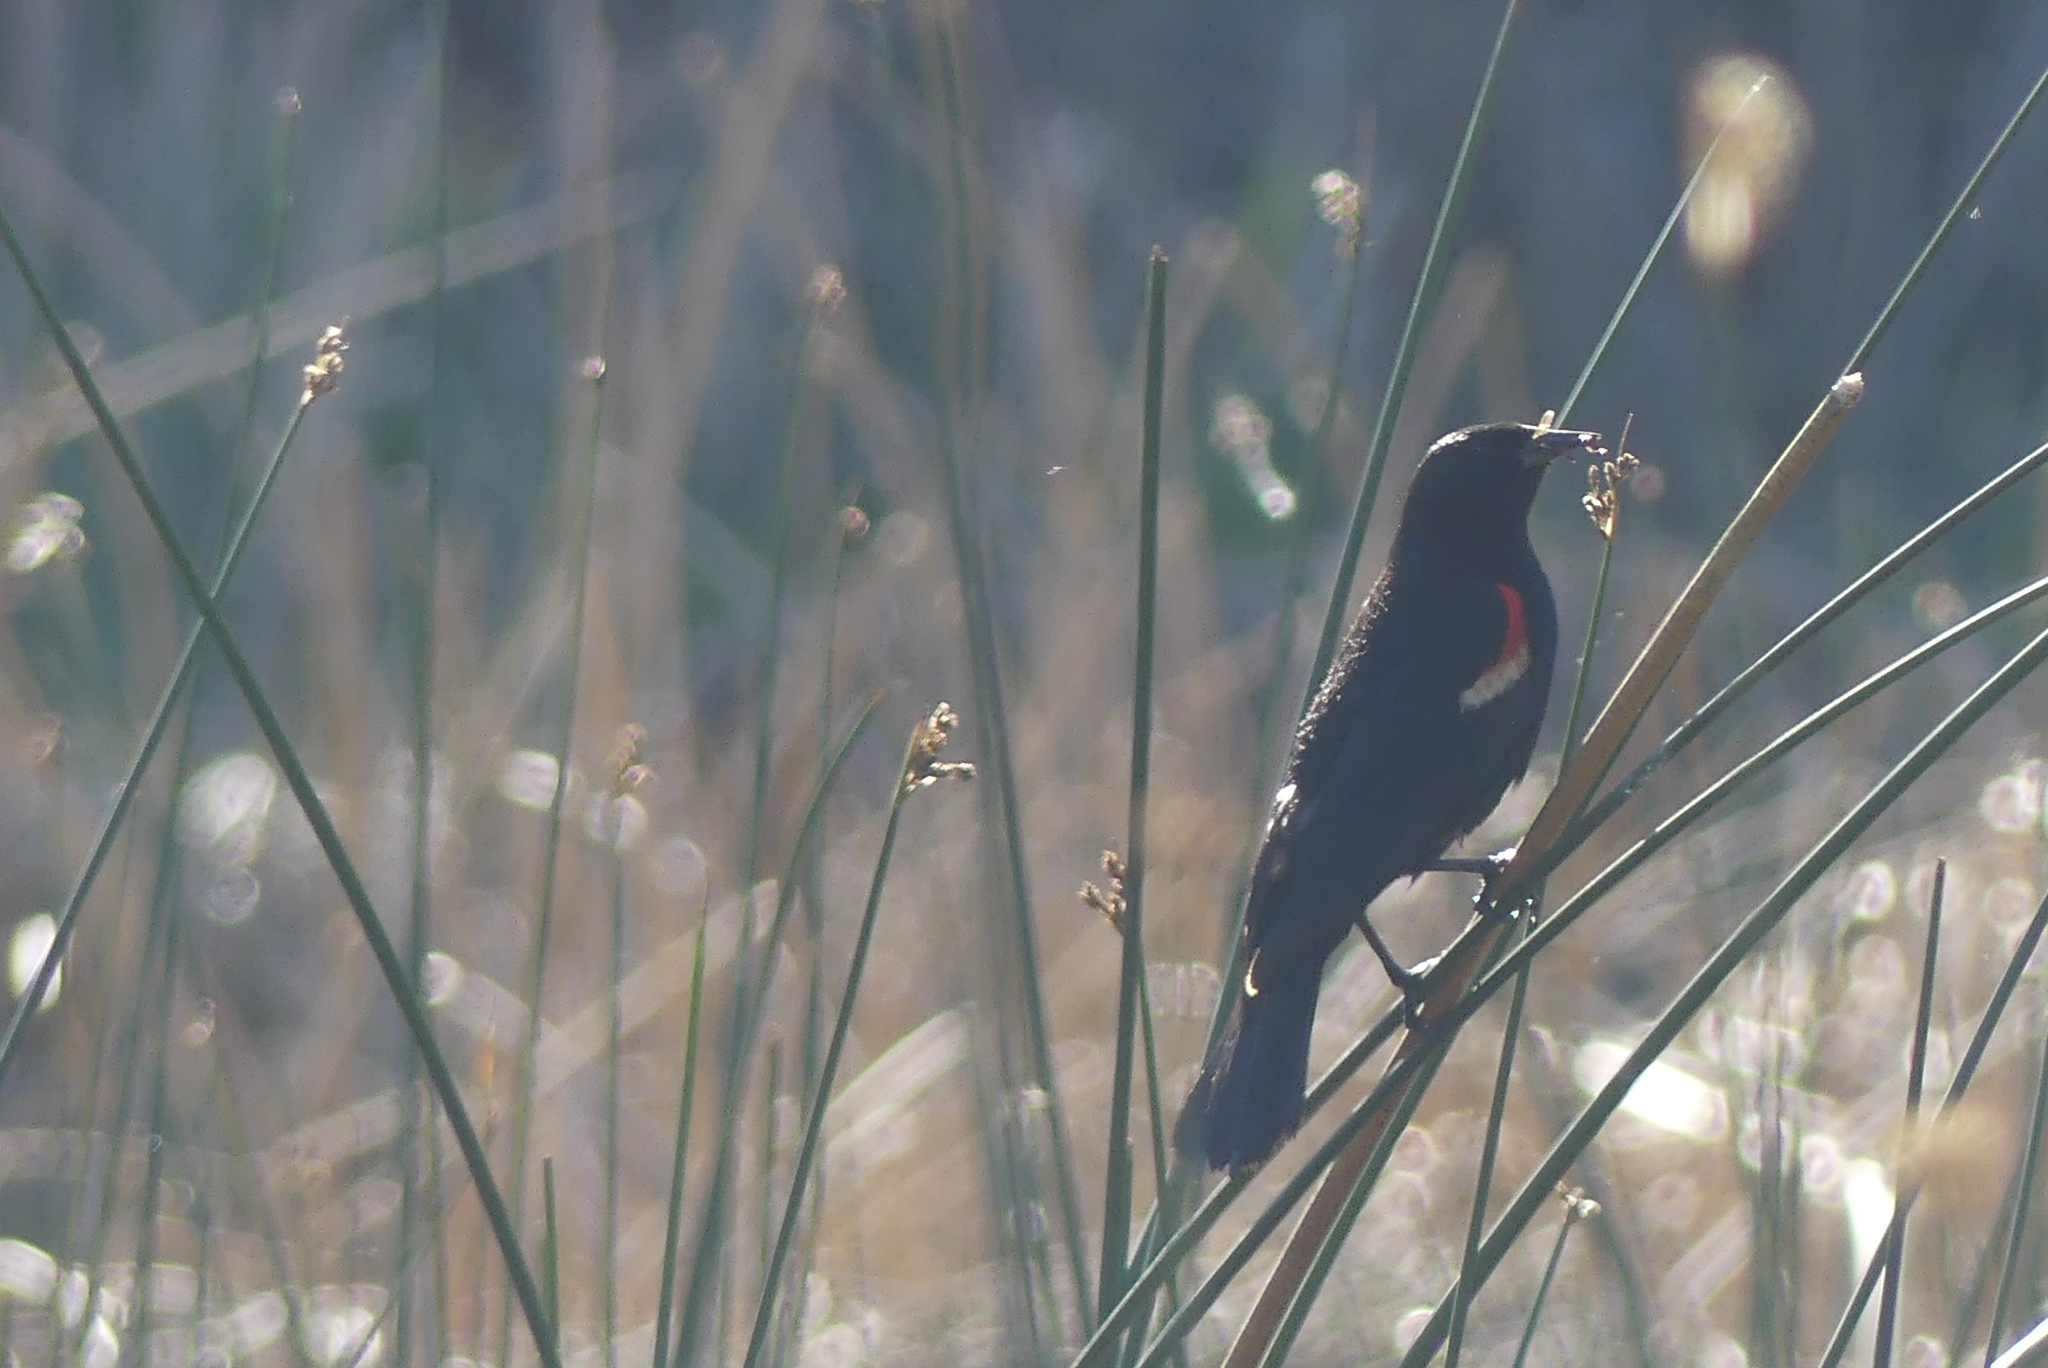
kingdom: Animalia
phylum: Chordata
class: Aves
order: Passeriformes
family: Icteridae
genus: Agelaius
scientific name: Agelaius phoeniceus
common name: Red-winged blackbird
